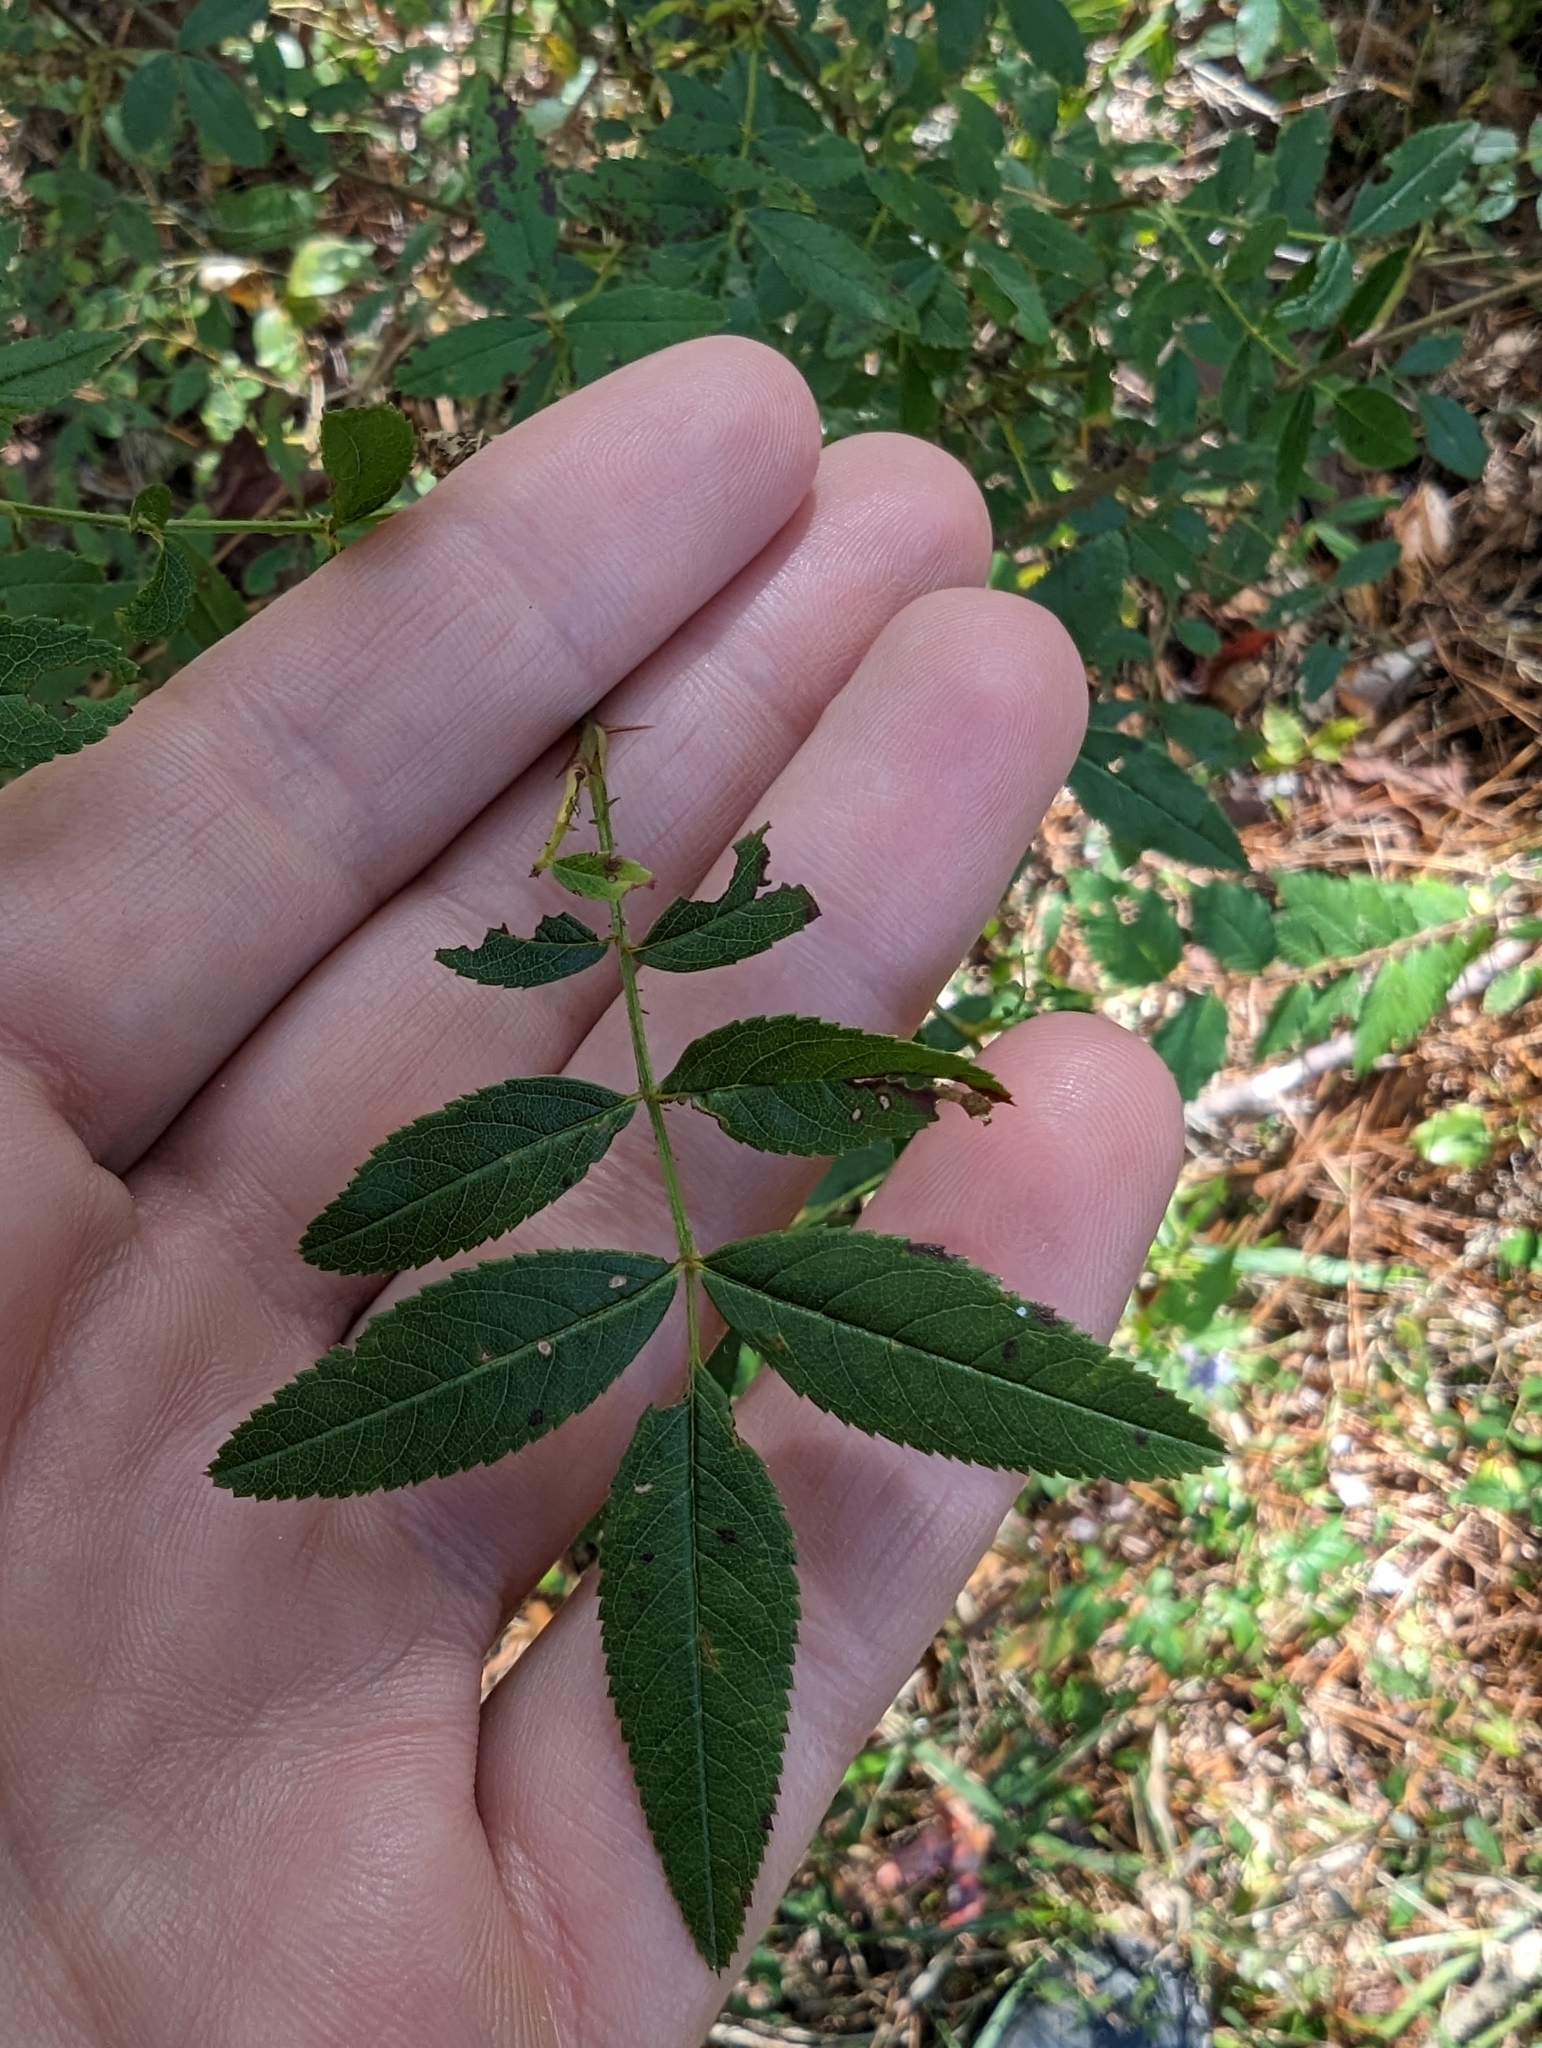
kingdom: Plantae
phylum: Tracheophyta
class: Magnoliopsida
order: Rosales
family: Rosaceae
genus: Rosa
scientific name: Rosa palustris
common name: Swamp rose
